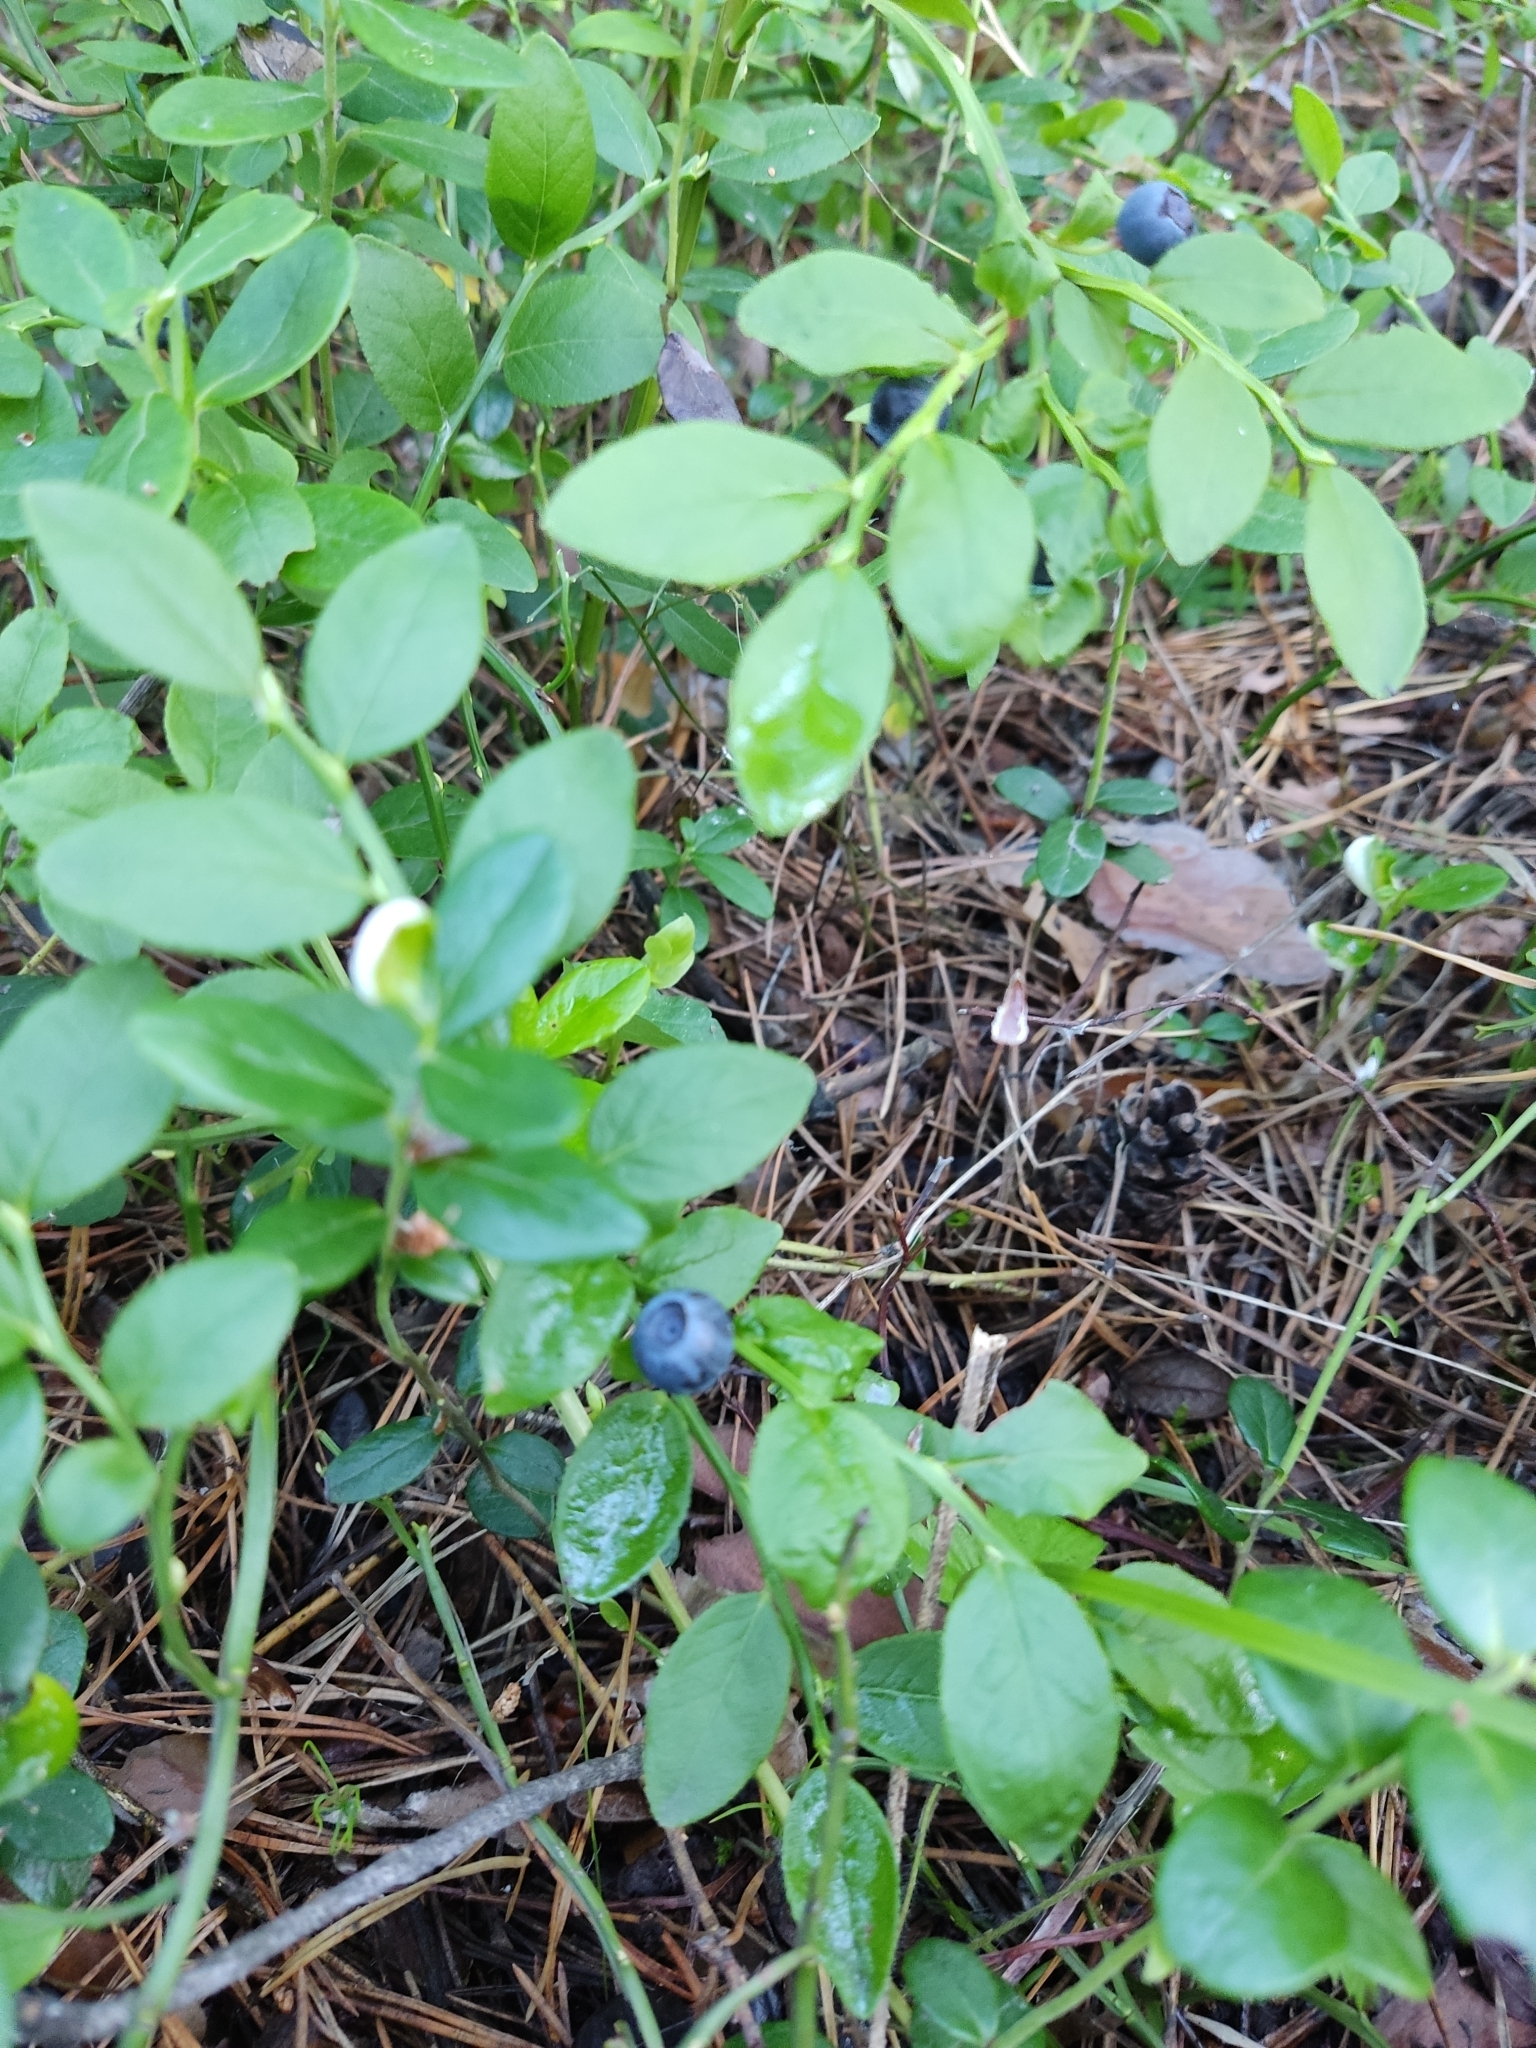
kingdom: Plantae
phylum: Tracheophyta
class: Magnoliopsida
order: Ericales
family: Ericaceae
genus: Vaccinium
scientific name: Vaccinium myrtillus
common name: Bilberry
